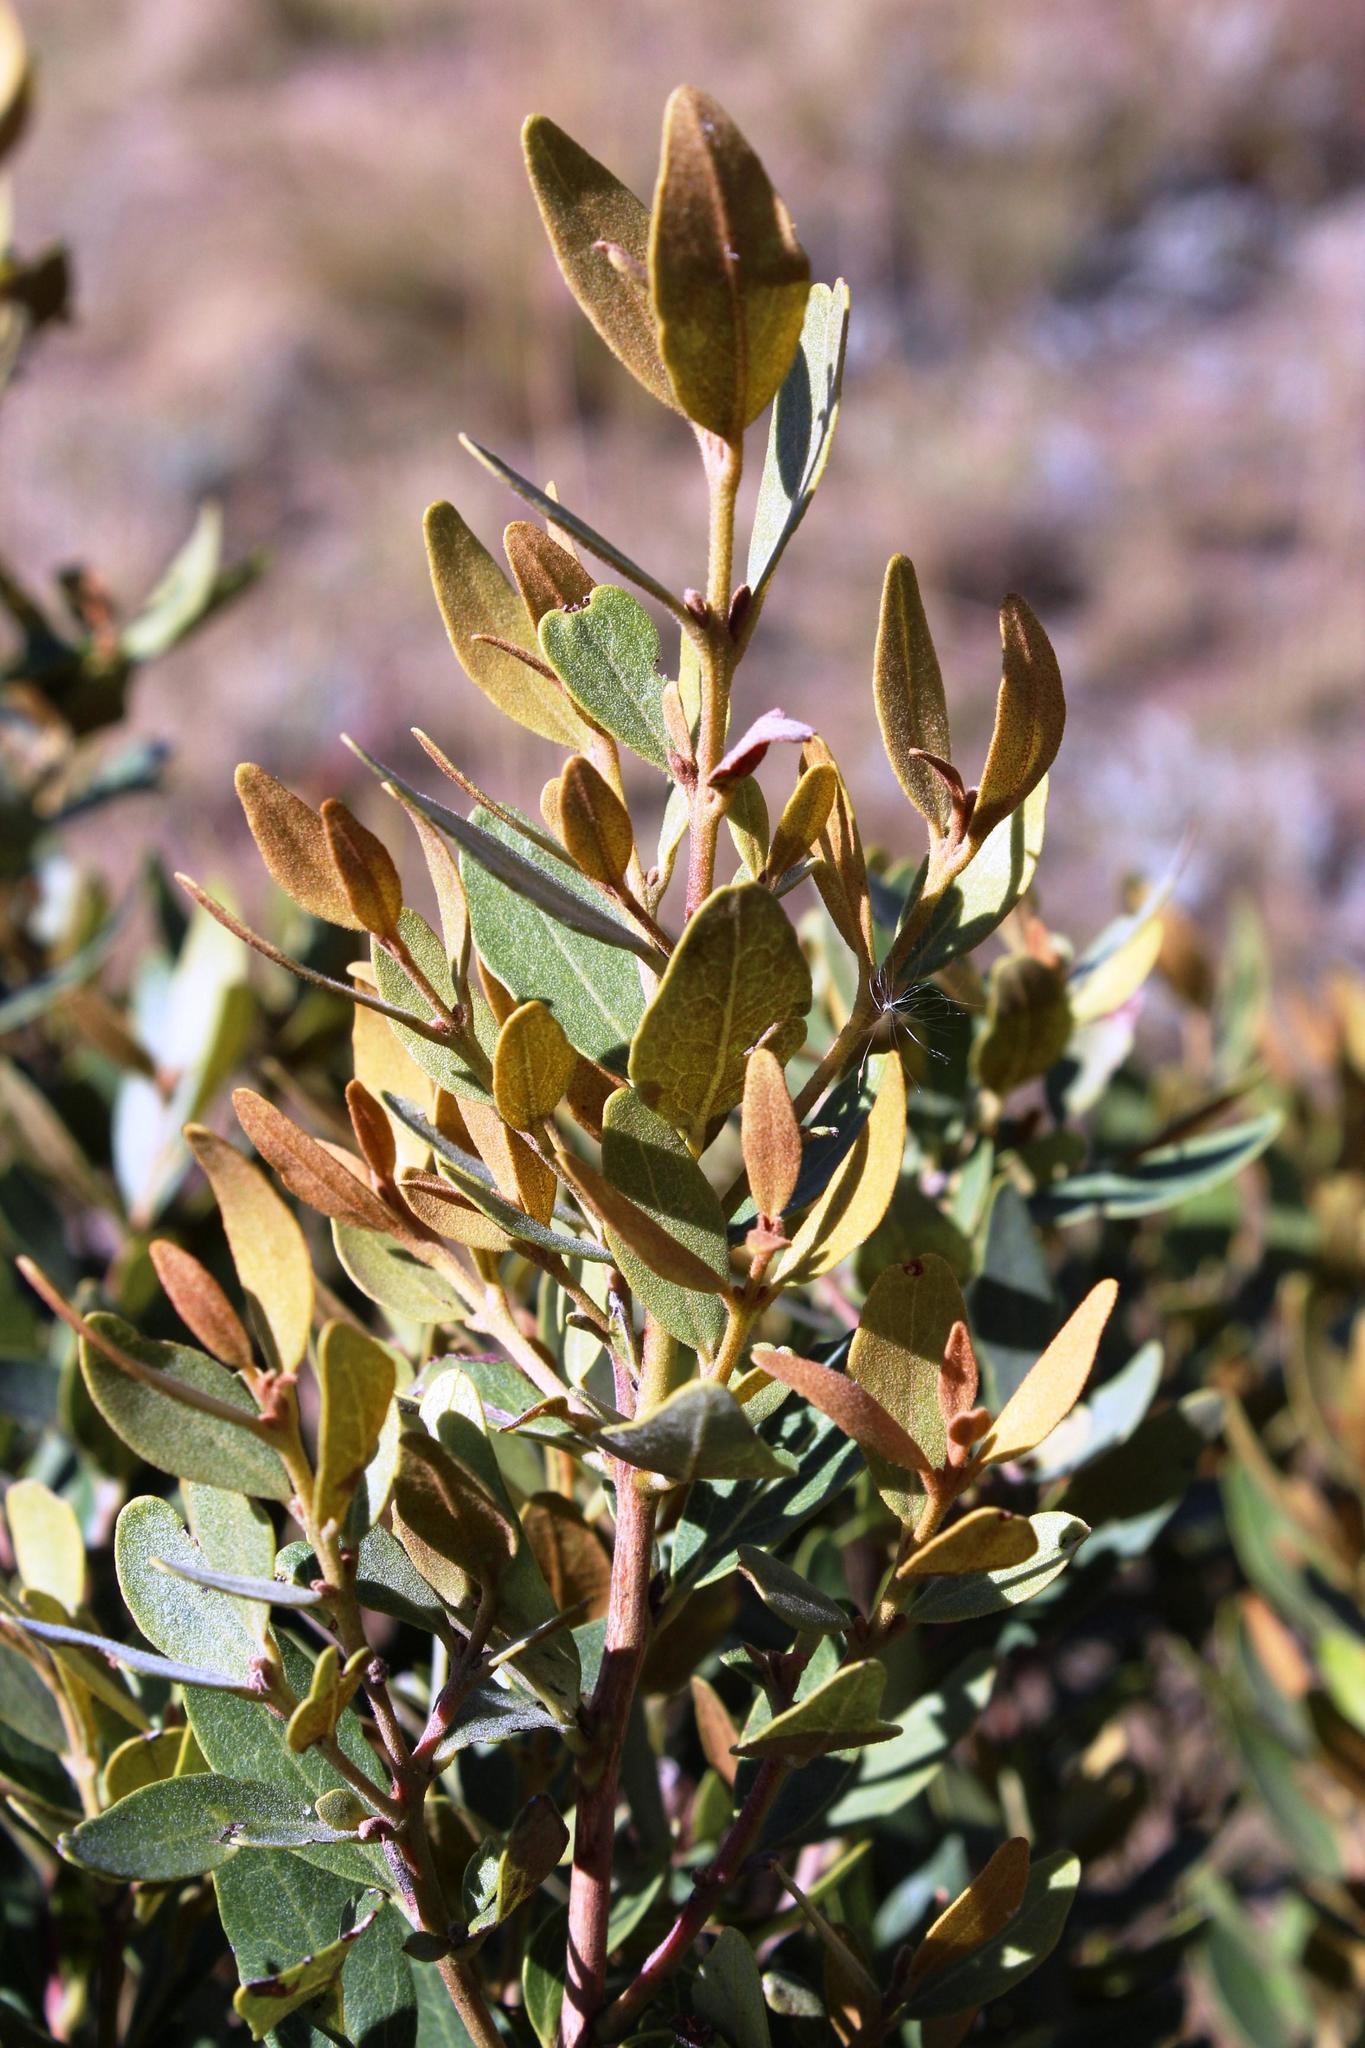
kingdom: Plantae
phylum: Tracheophyta
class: Magnoliopsida
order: Ericales
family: Ebenaceae
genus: Euclea
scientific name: Euclea crispa
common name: Blue guarri
